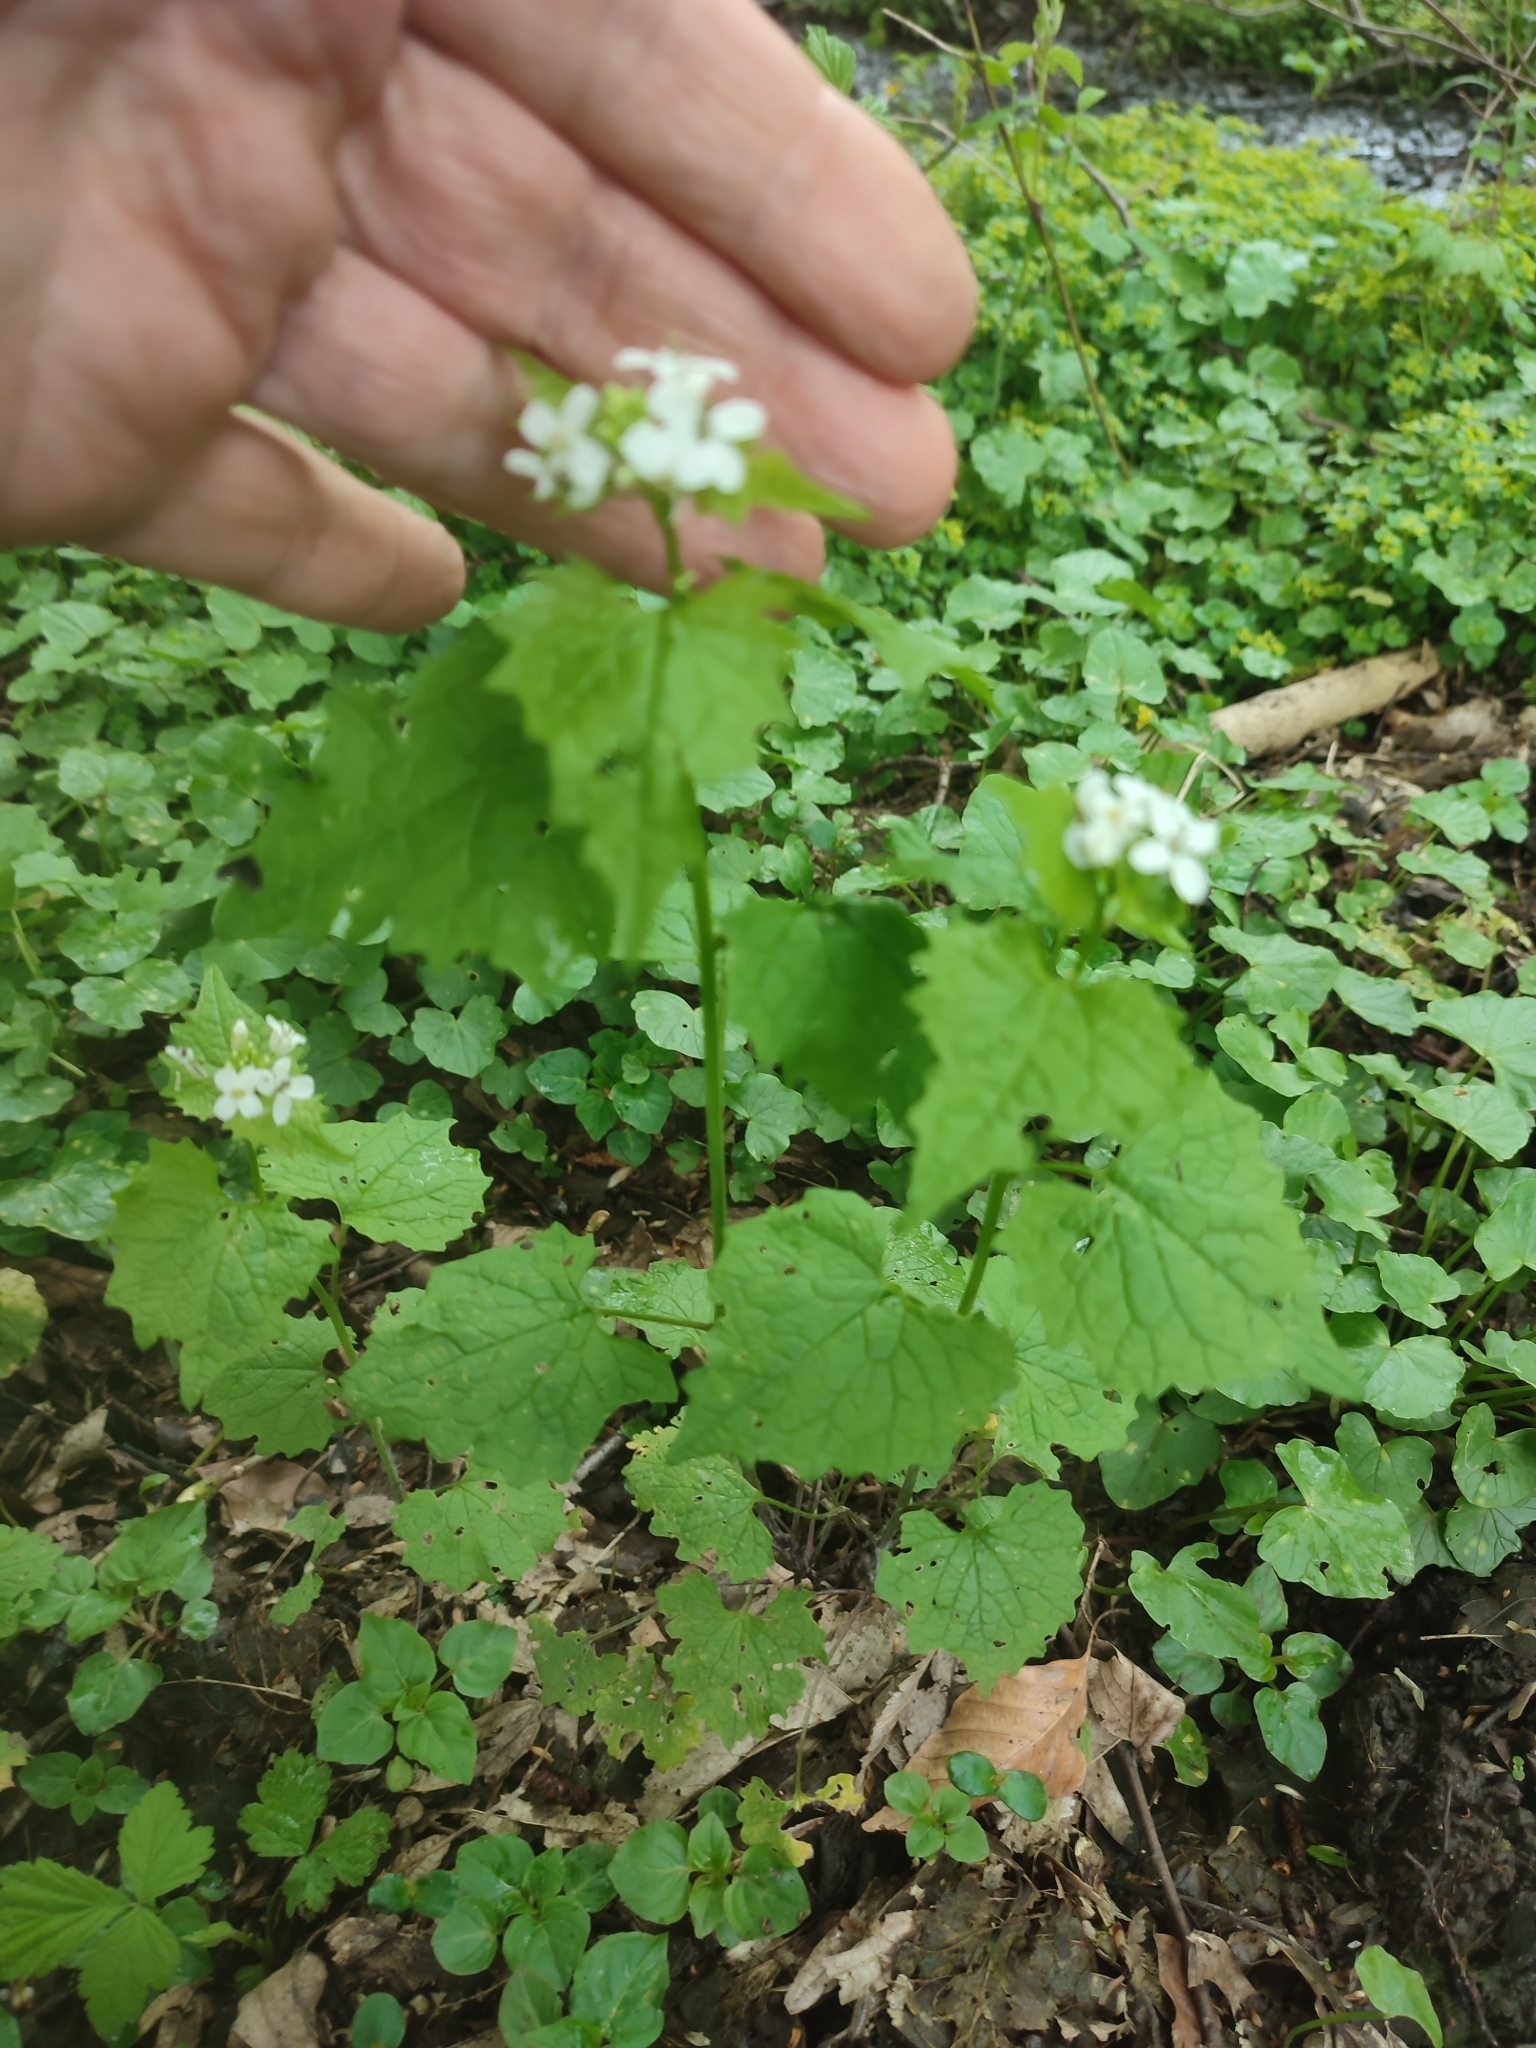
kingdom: Plantae
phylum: Tracheophyta
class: Magnoliopsida
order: Brassicales
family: Brassicaceae
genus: Alliaria
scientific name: Alliaria petiolata
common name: Garlic mustard
